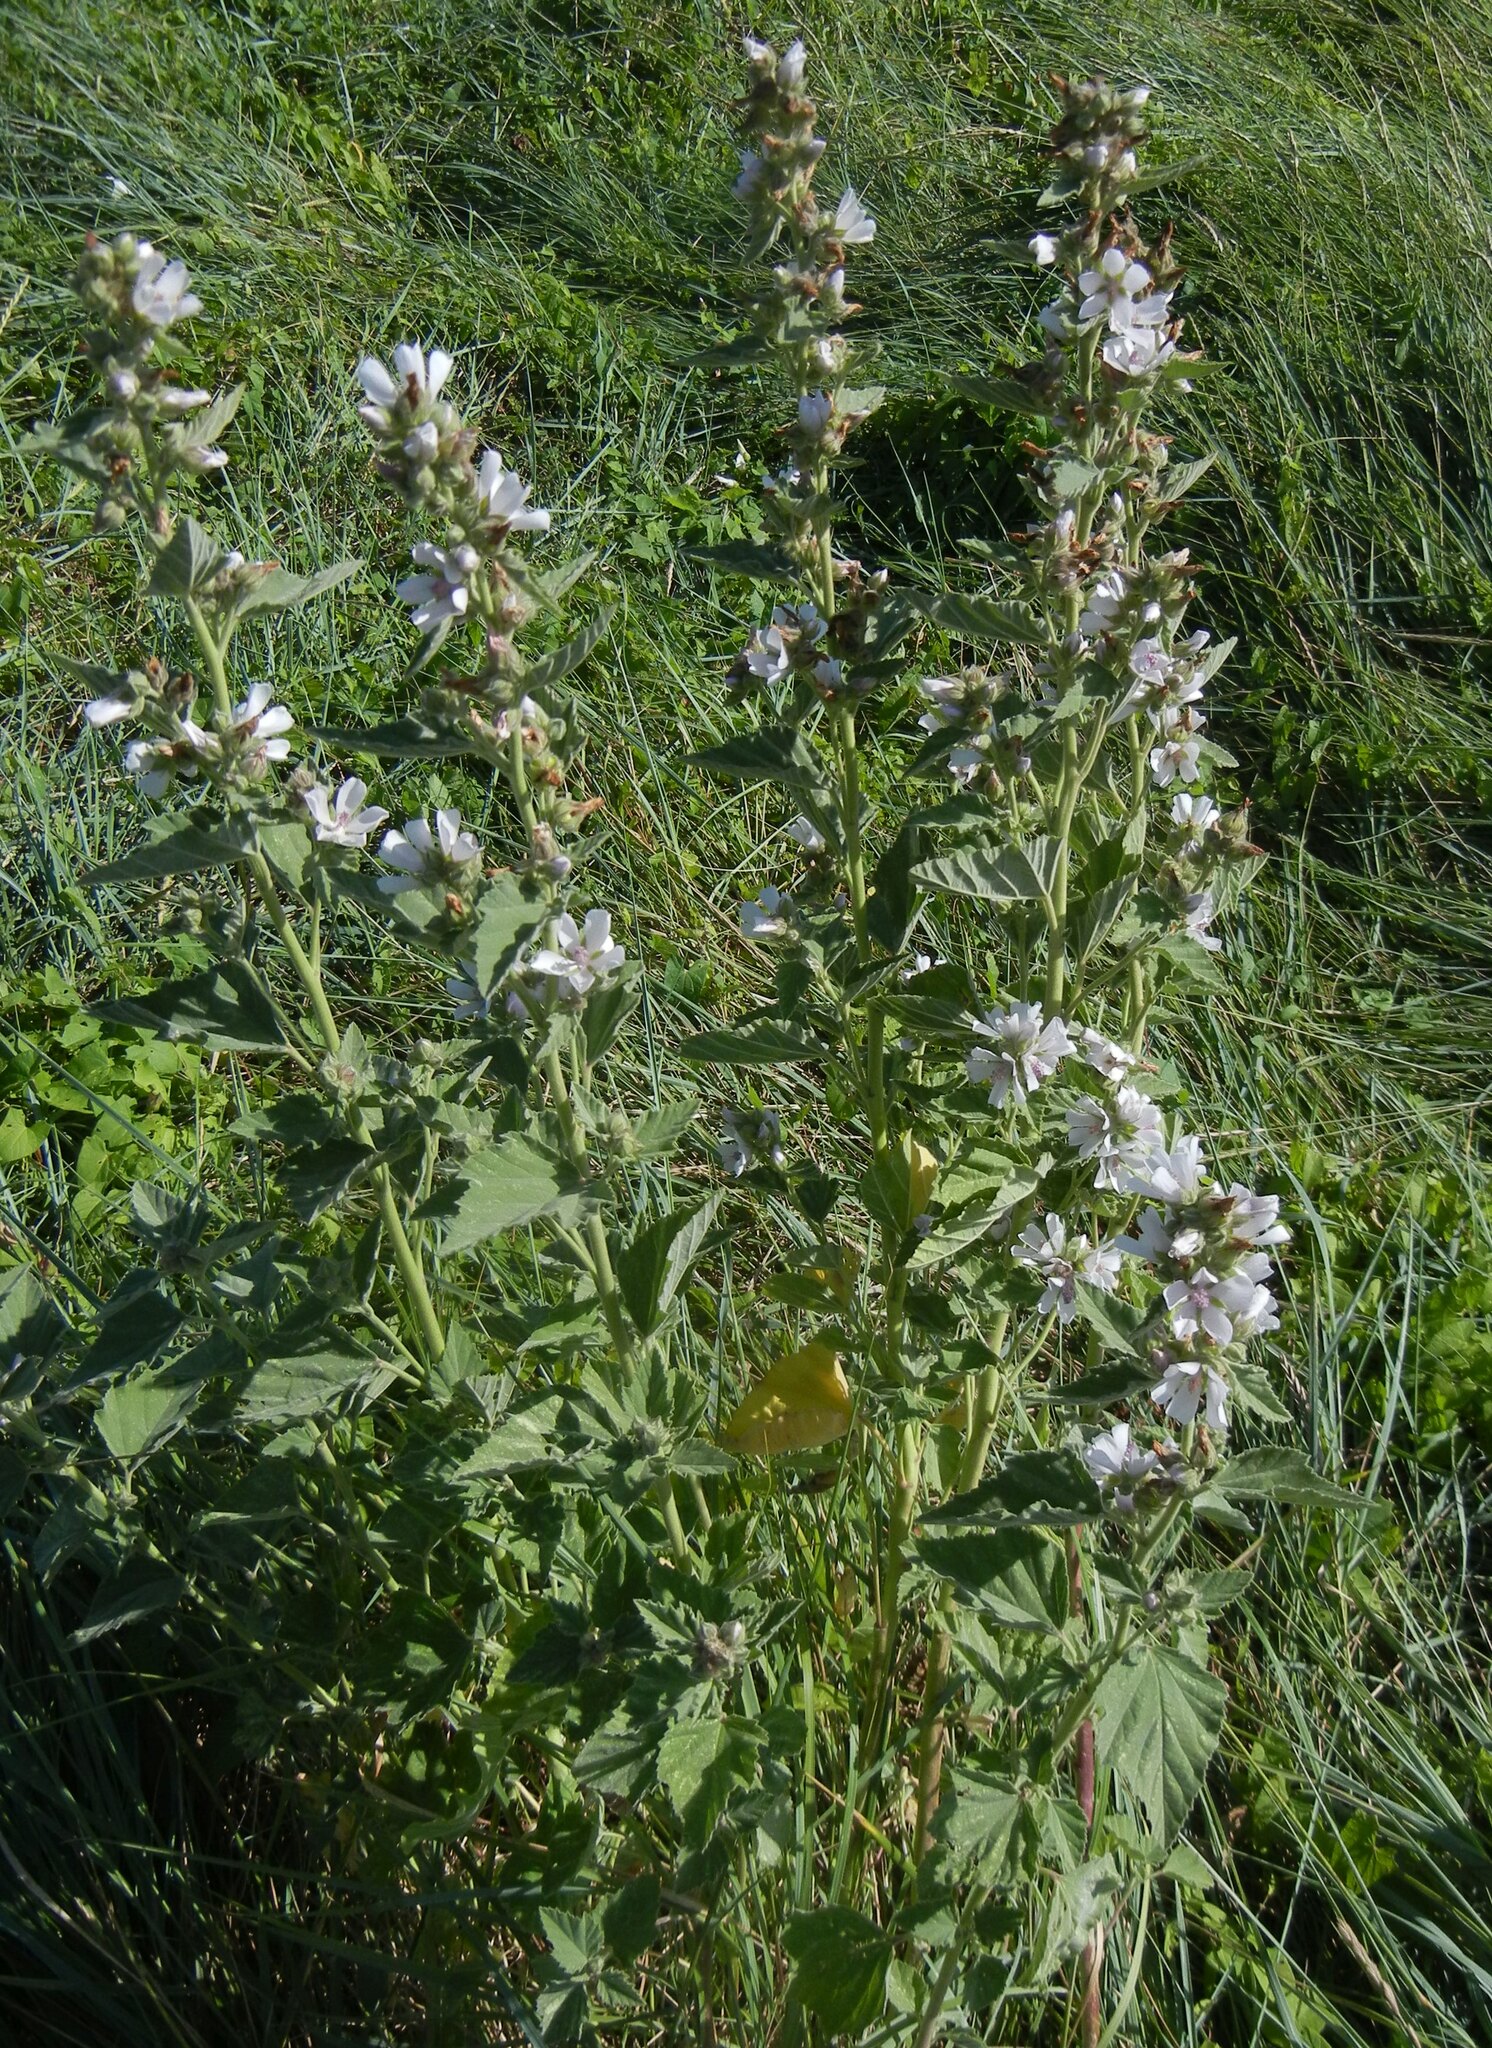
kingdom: Plantae
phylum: Tracheophyta
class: Magnoliopsida
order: Malvales
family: Malvaceae
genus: Althaea
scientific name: Althaea officinalis
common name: Marsh-mallow
